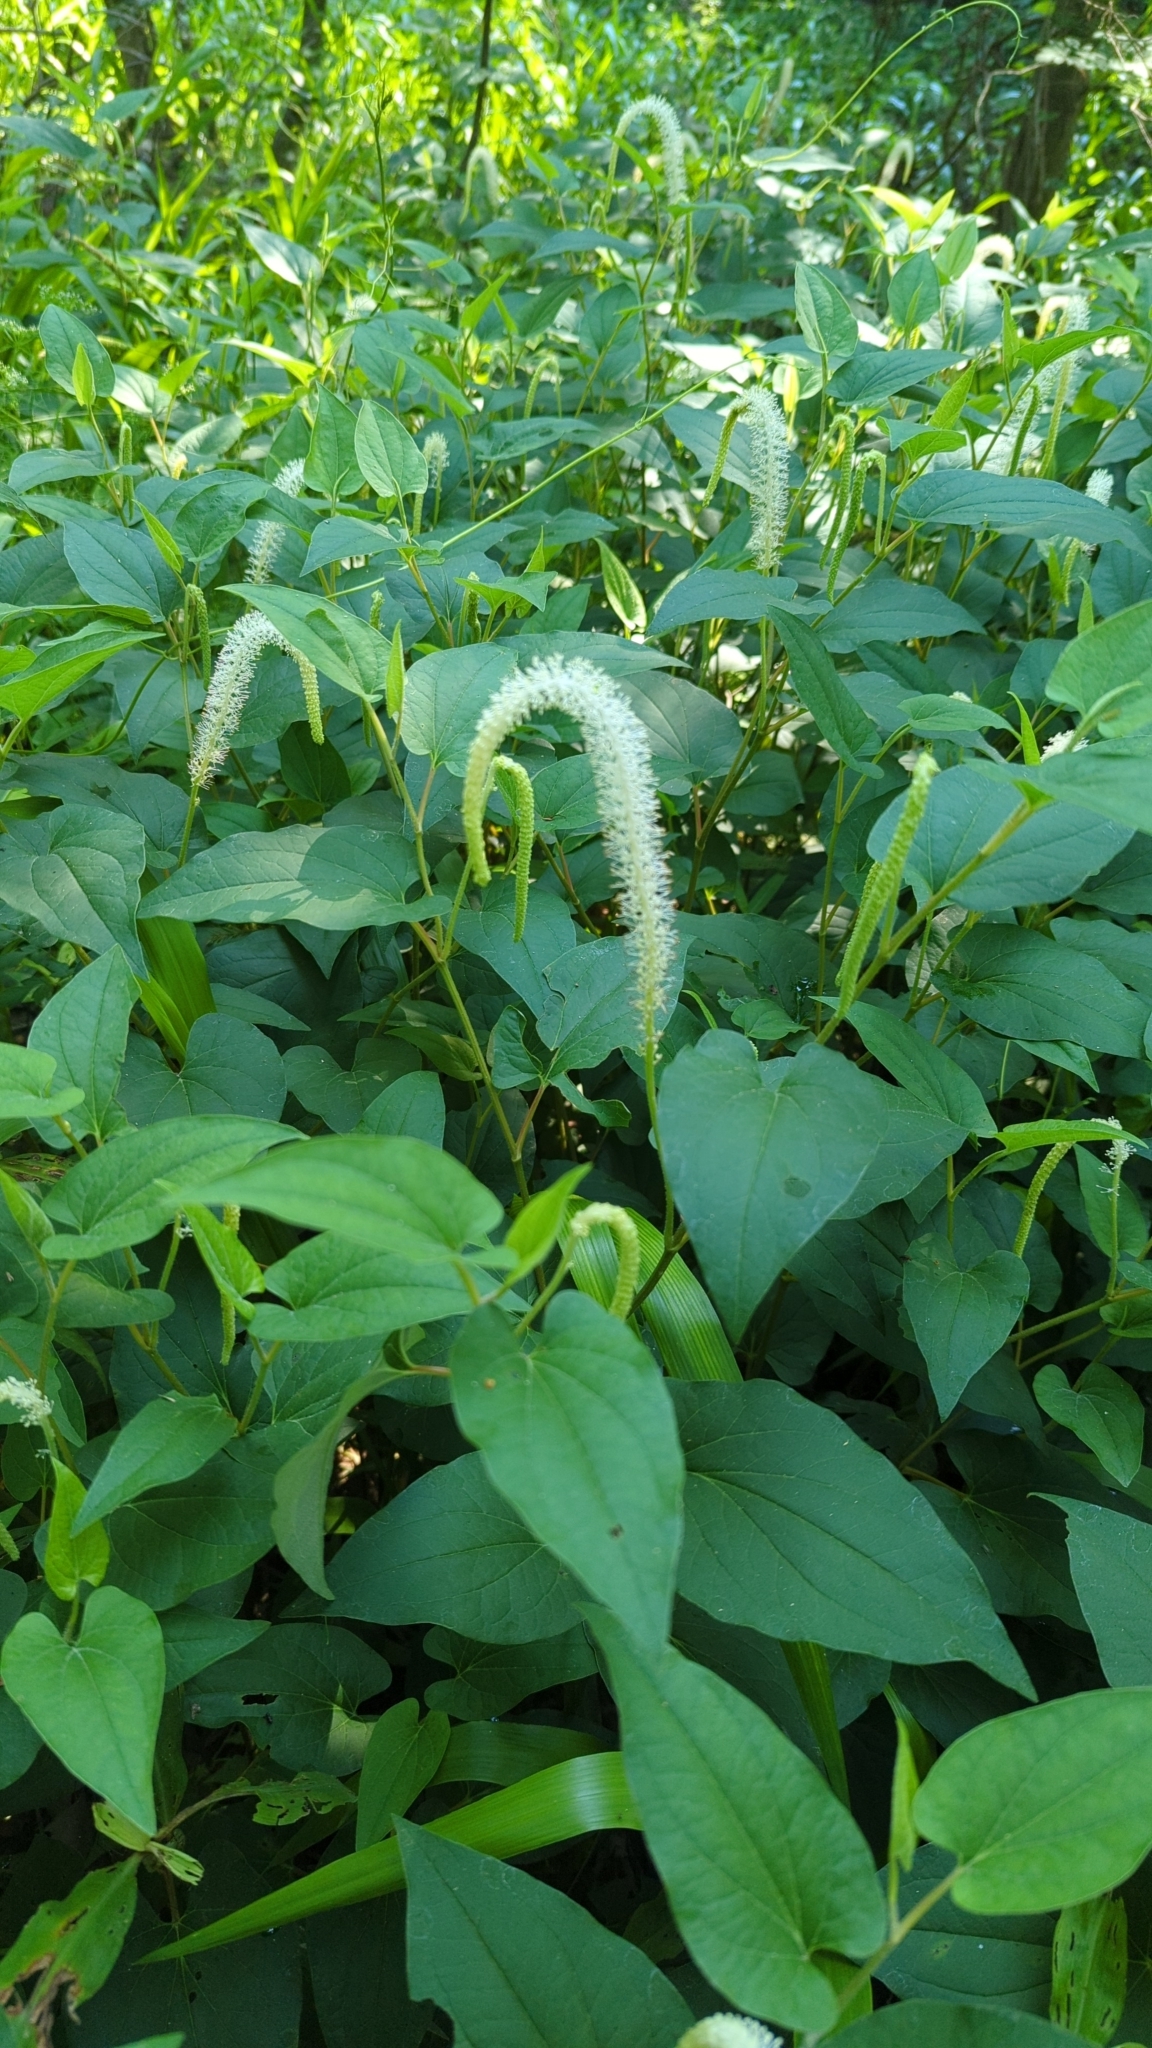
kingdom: Plantae
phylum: Tracheophyta
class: Magnoliopsida
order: Piperales
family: Saururaceae
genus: Saururus
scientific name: Saururus cernuus
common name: Lizard's-tail
